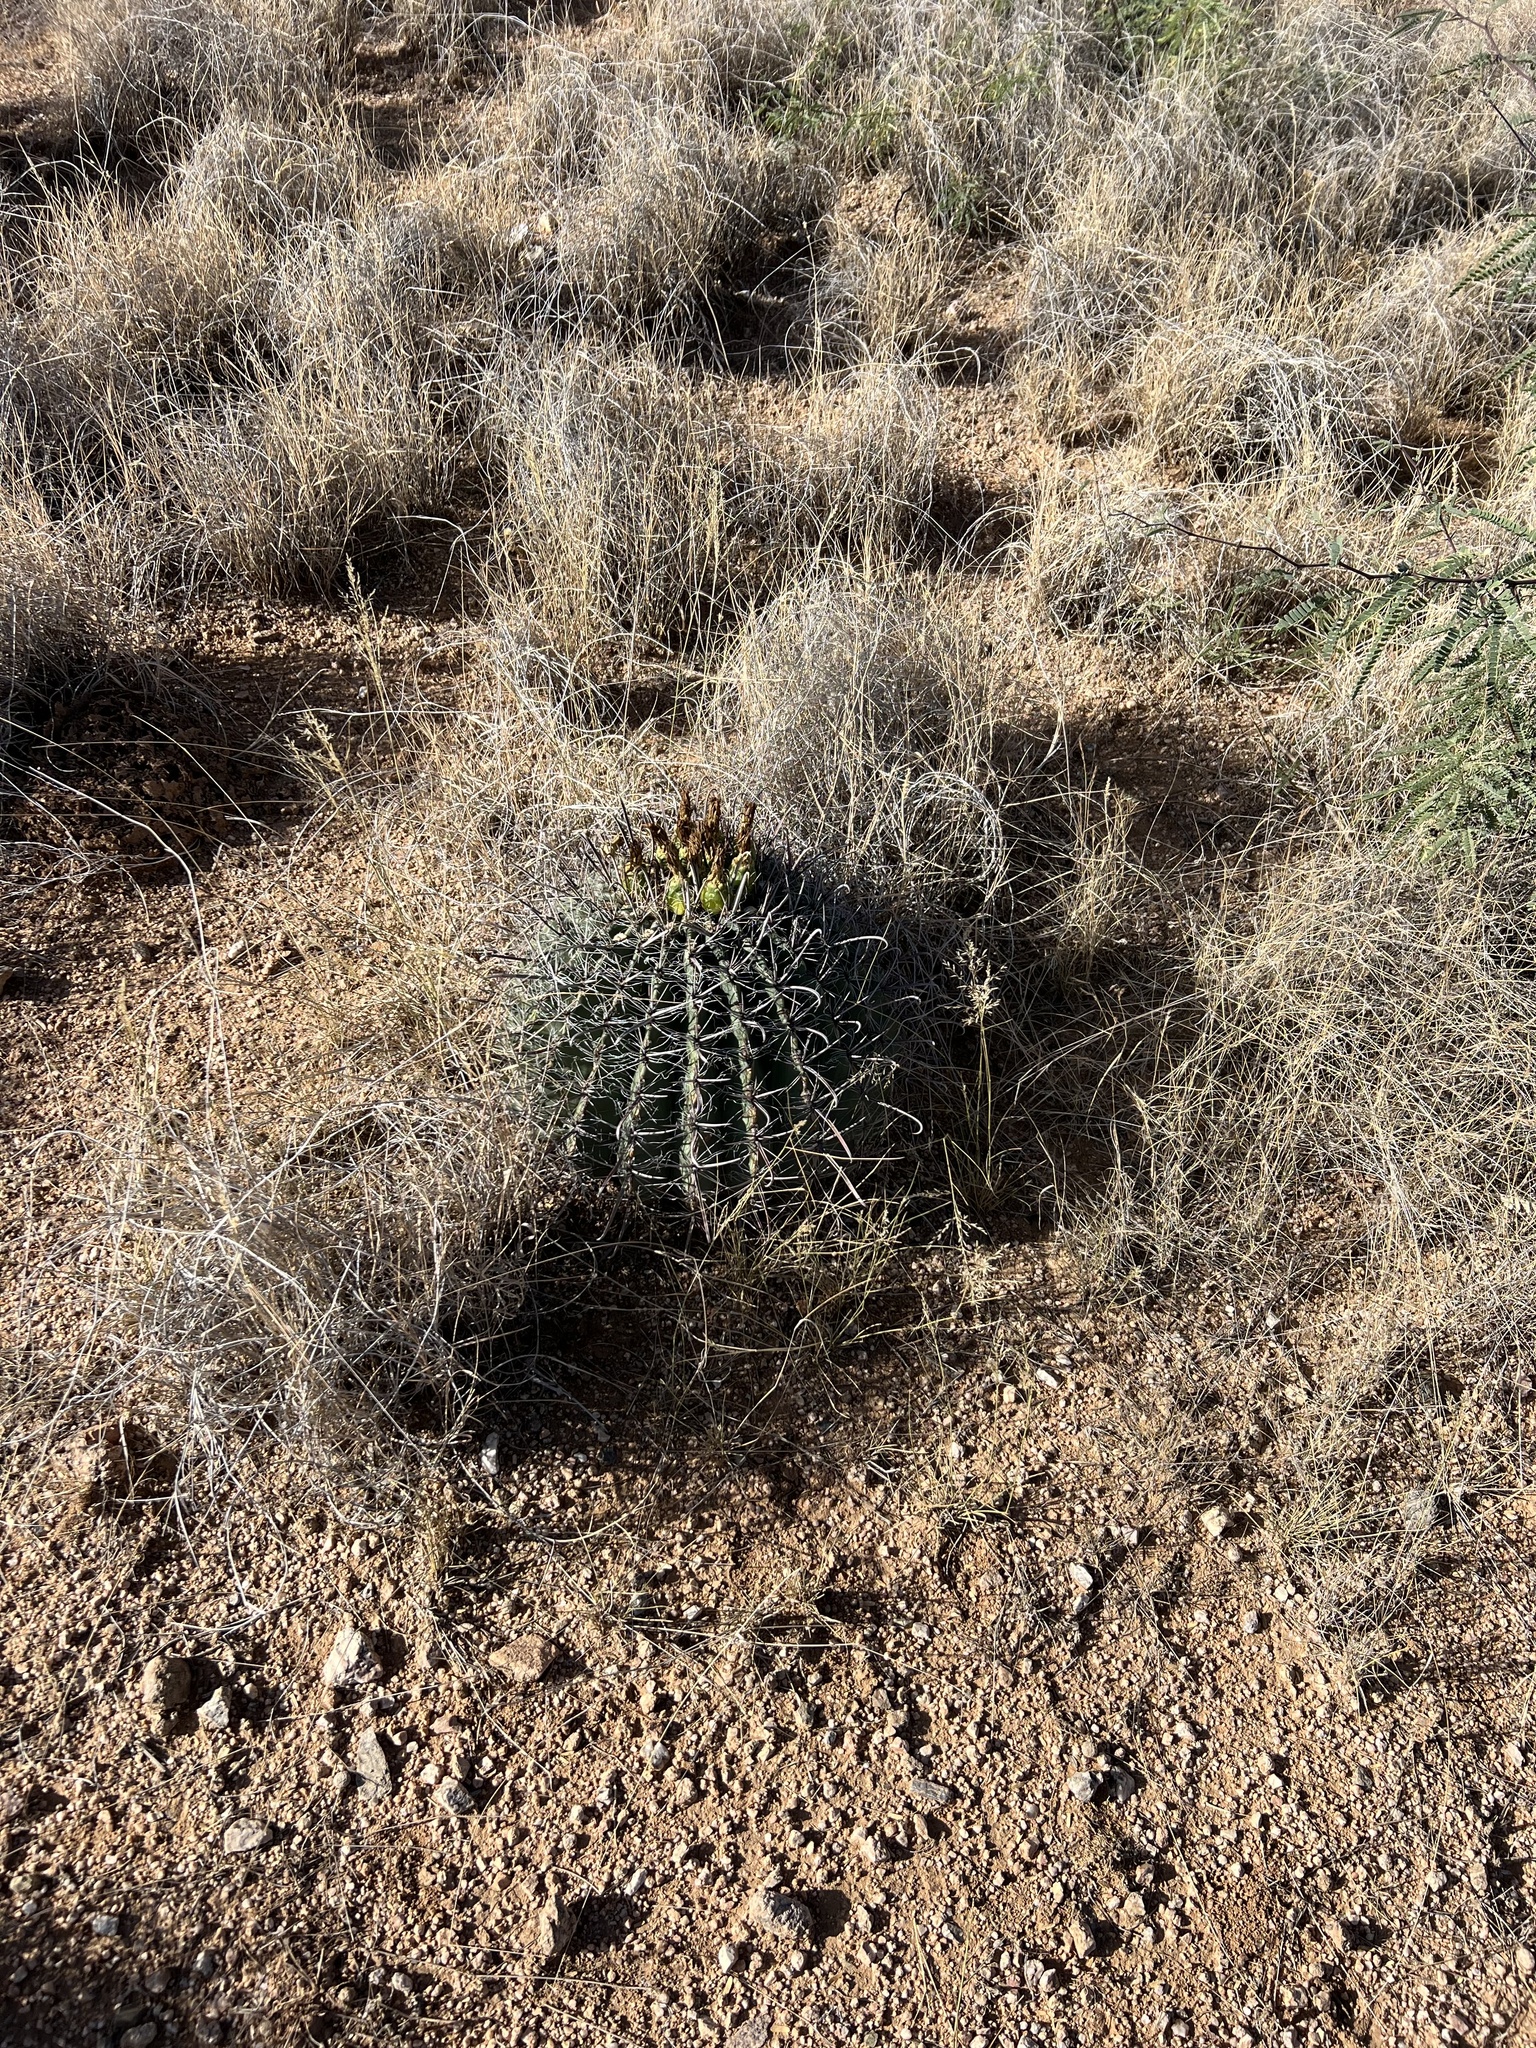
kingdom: Plantae
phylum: Tracheophyta
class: Magnoliopsida
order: Caryophyllales
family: Cactaceae
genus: Ferocactus
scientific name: Ferocactus wislizeni
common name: Candy barrel cactus
